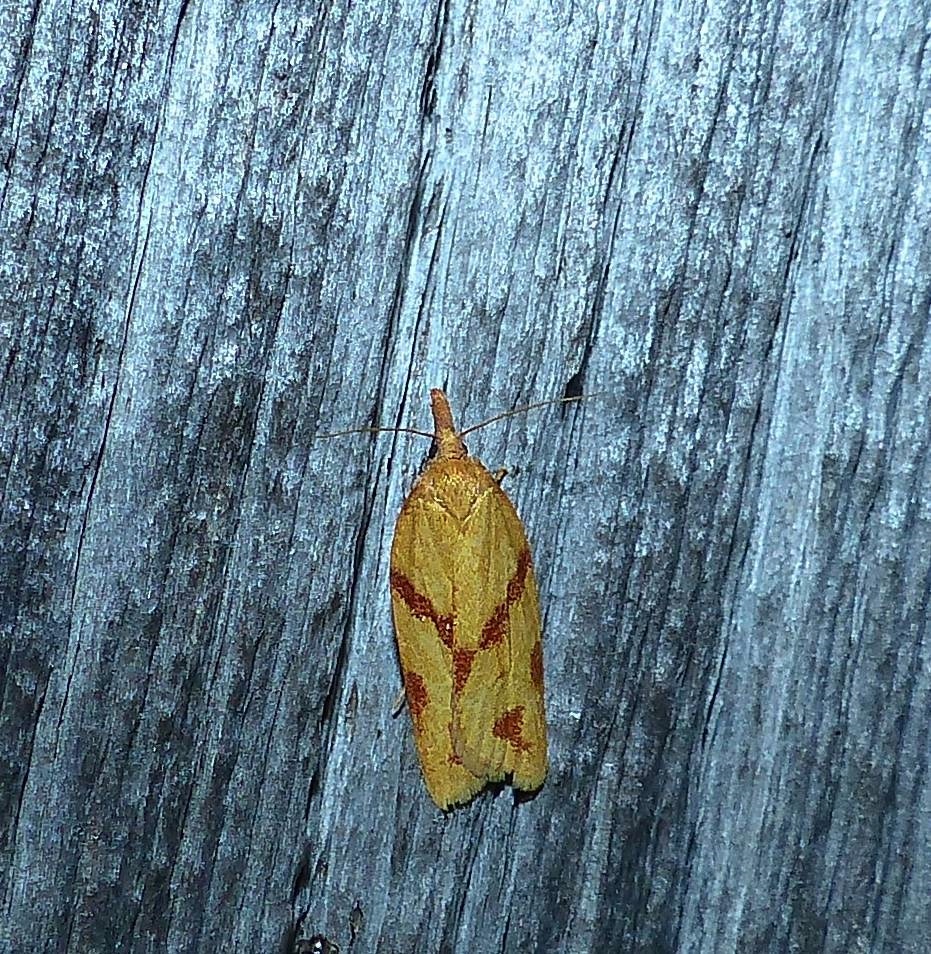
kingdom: Animalia
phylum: Arthropoda
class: Insecta
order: Lepidoptera
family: Tortricidae
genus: Sparganothis
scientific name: Sparganothis unifasciana
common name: One-lined sparganothis moth
